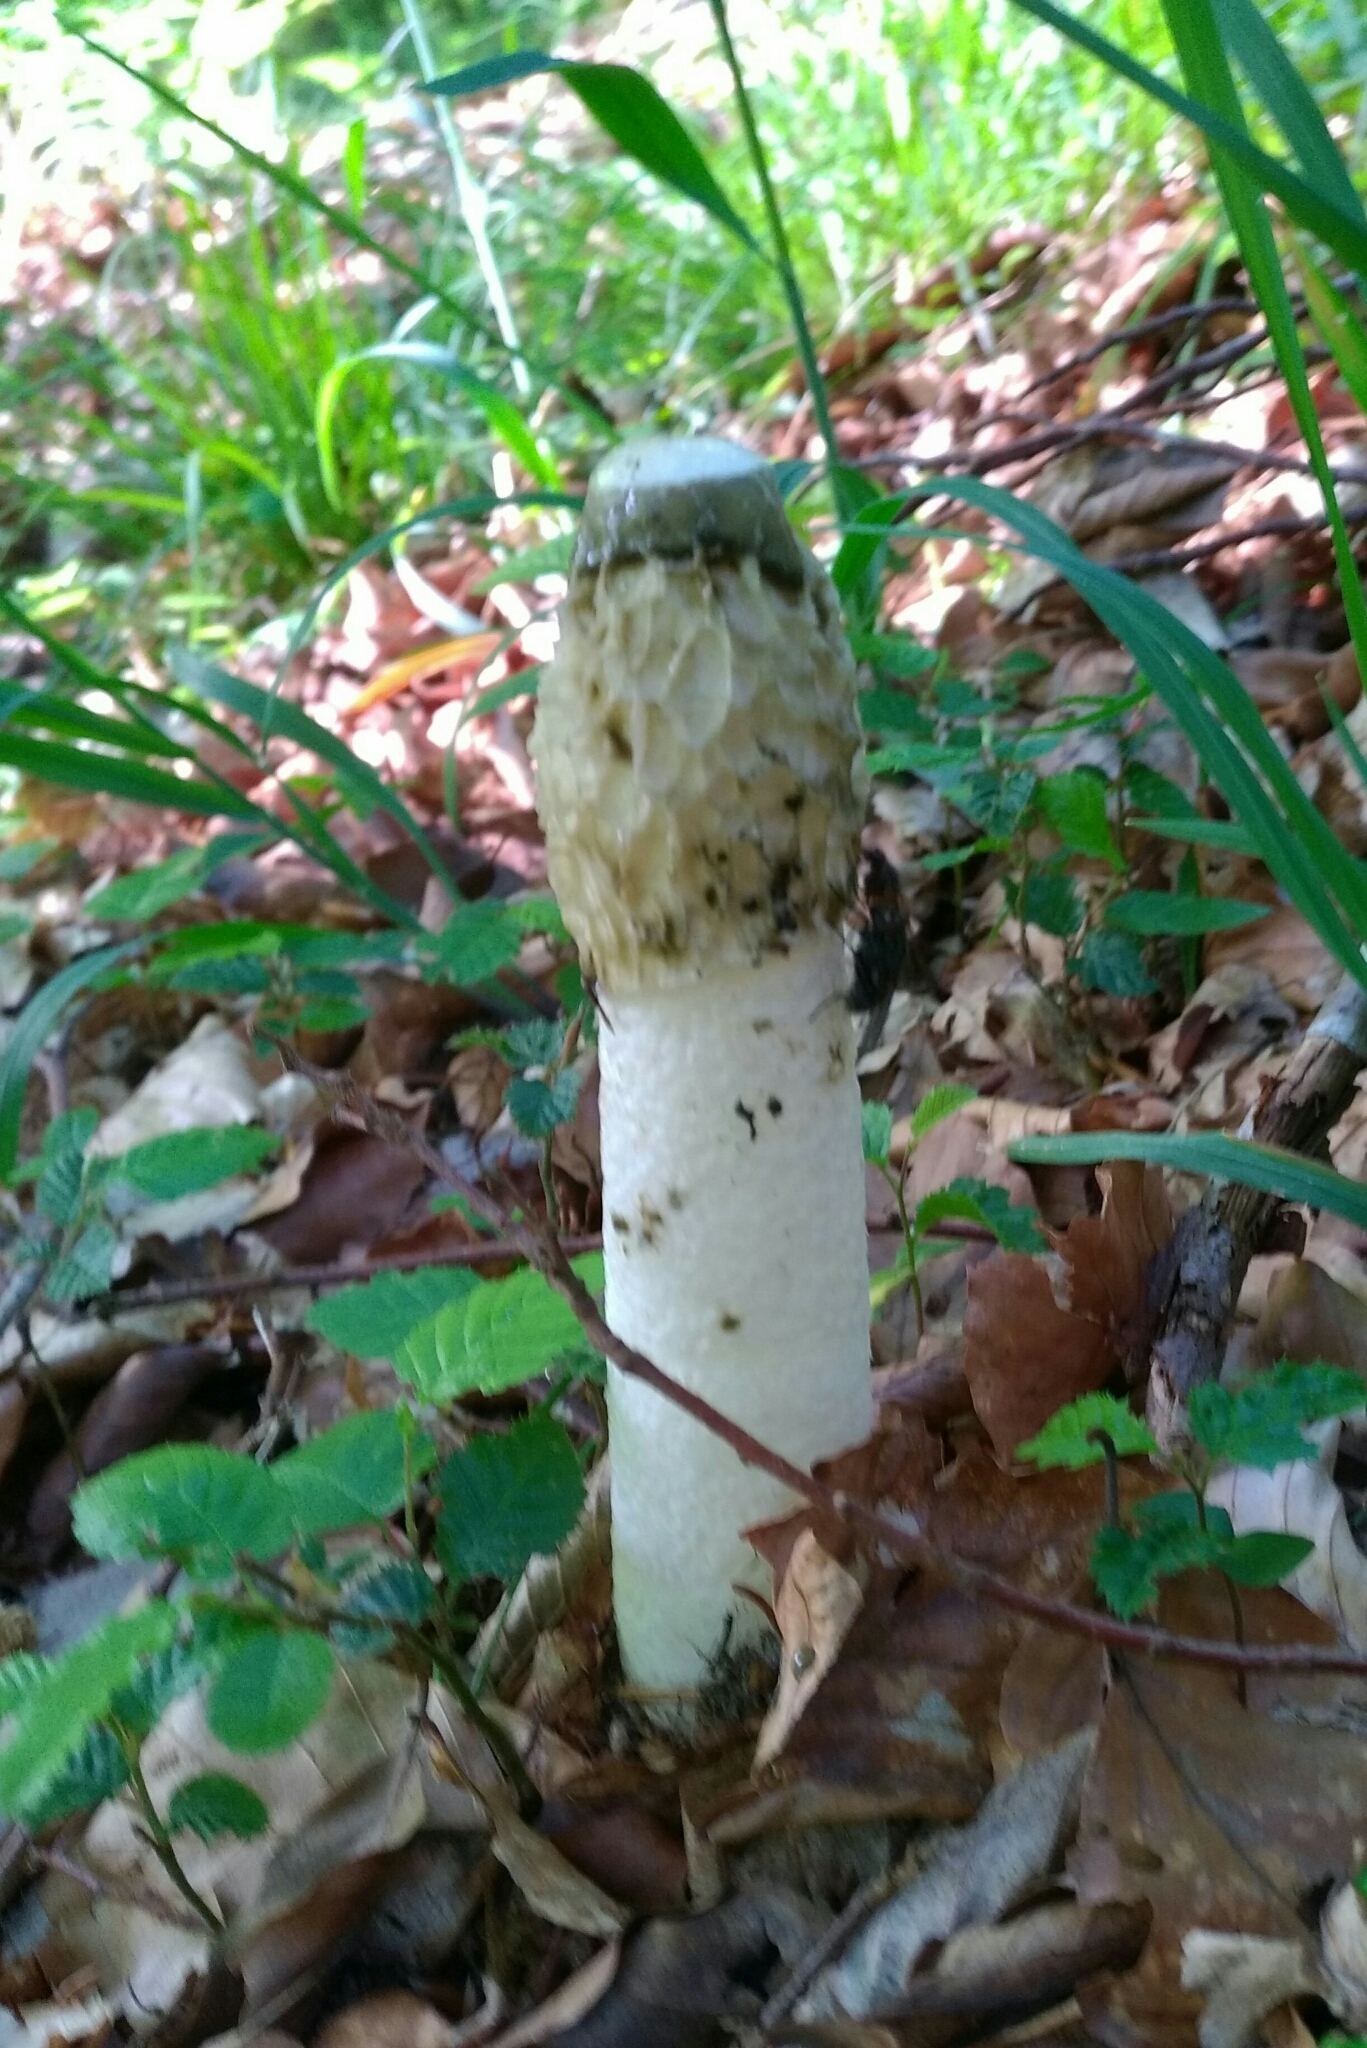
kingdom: Fungi
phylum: Basidiomycota
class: Agaricomycetes
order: Phallales
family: Phallaceae
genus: Phallus
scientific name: Phallus impudicus
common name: Common stinkhorn
